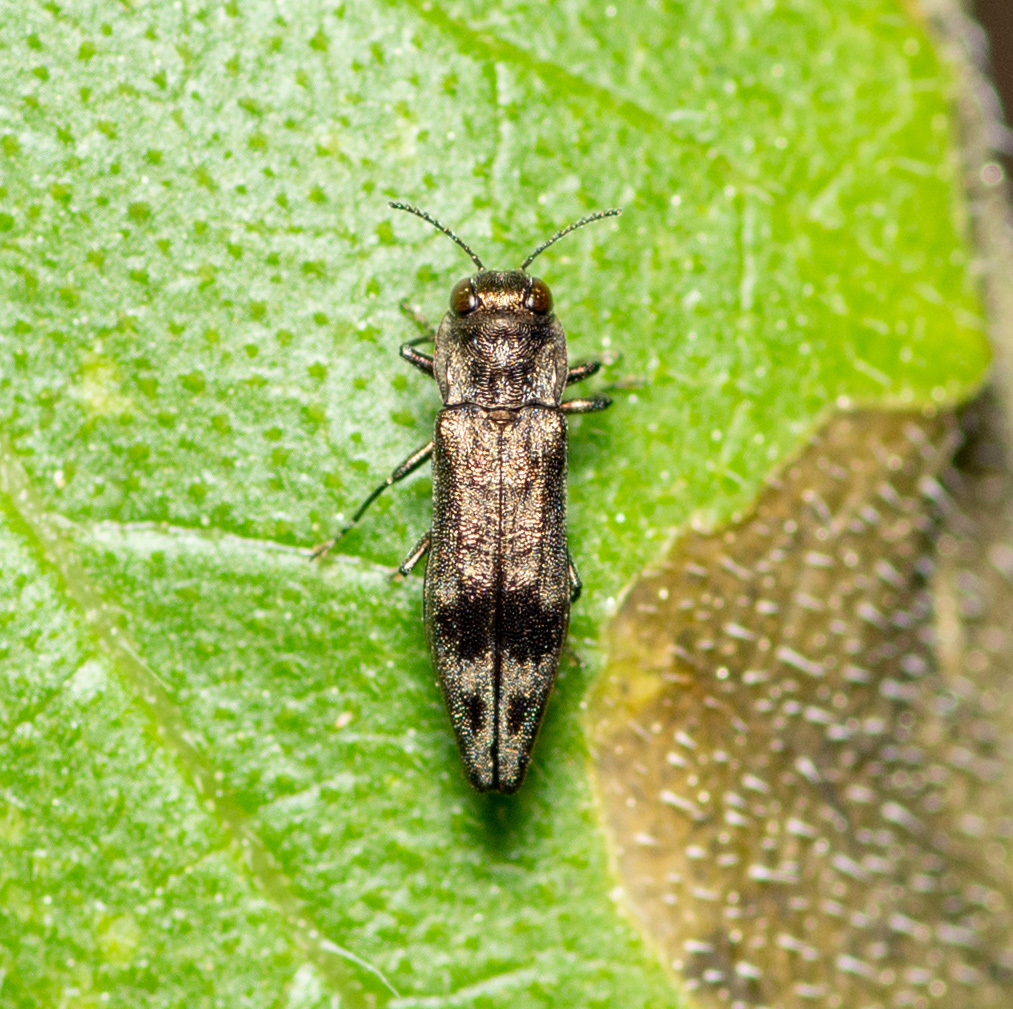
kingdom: Animalia
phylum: Arthropoda
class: Insecta
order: Coleoptera
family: Buprestidae
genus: Agrilus
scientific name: Agrilus lecontei
